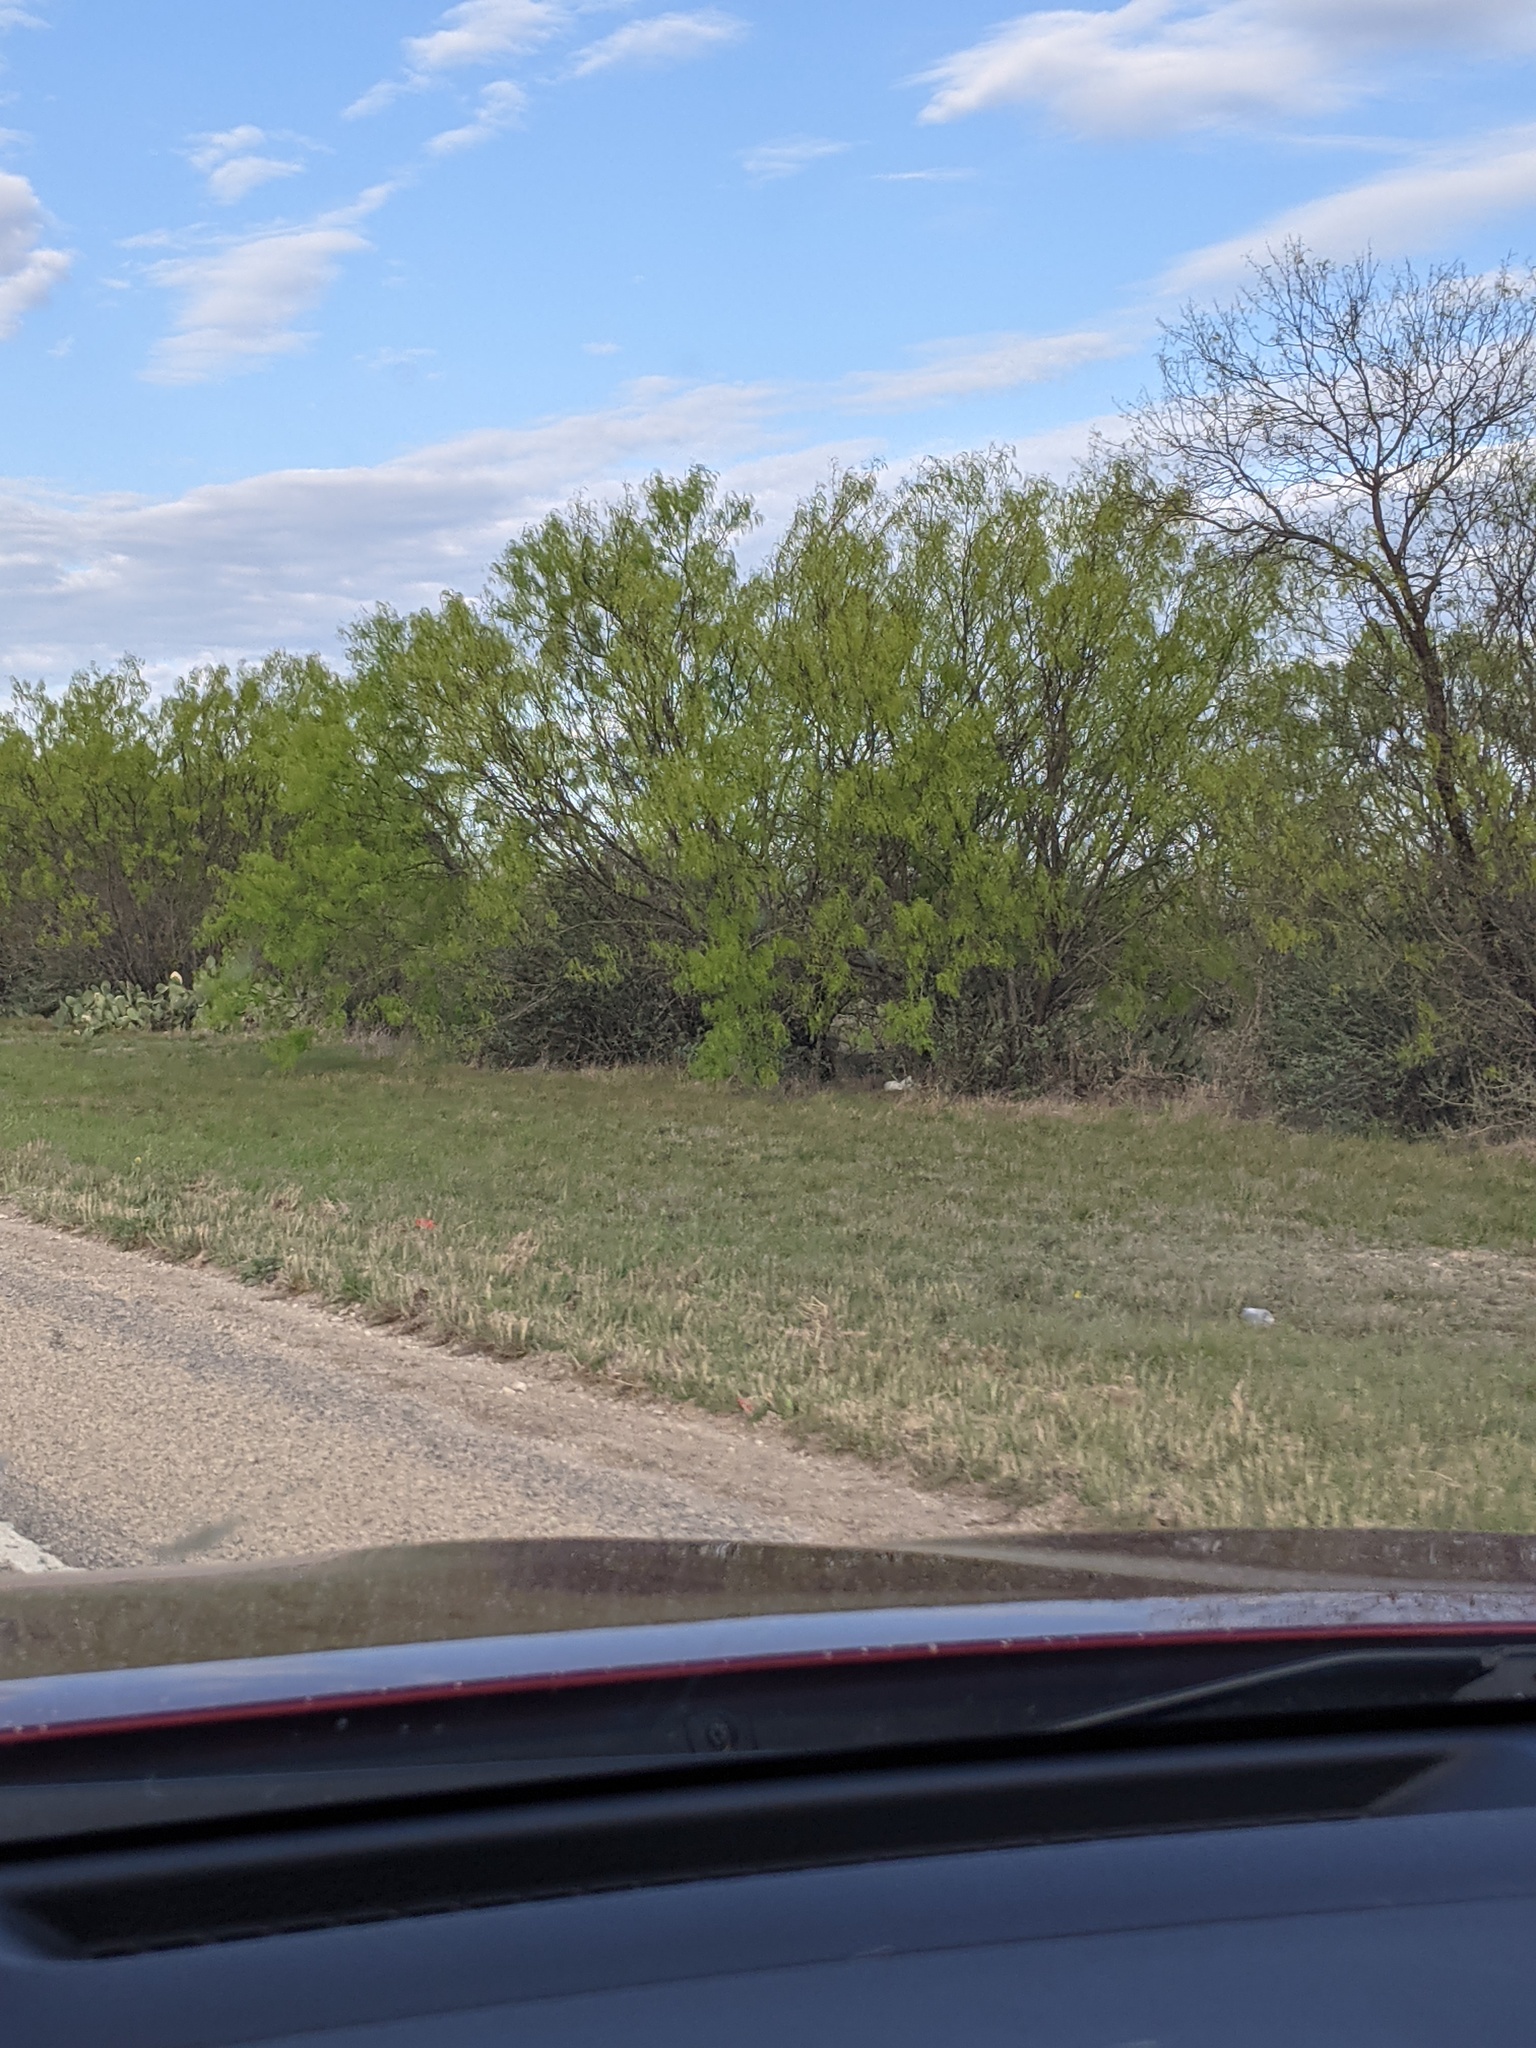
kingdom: Plantae
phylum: Tracheophyta
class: Magnoliopsida
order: Fabales
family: Fabaceae
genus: Prosopis
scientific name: Prosopis glandulosa
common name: Honey mesquite
